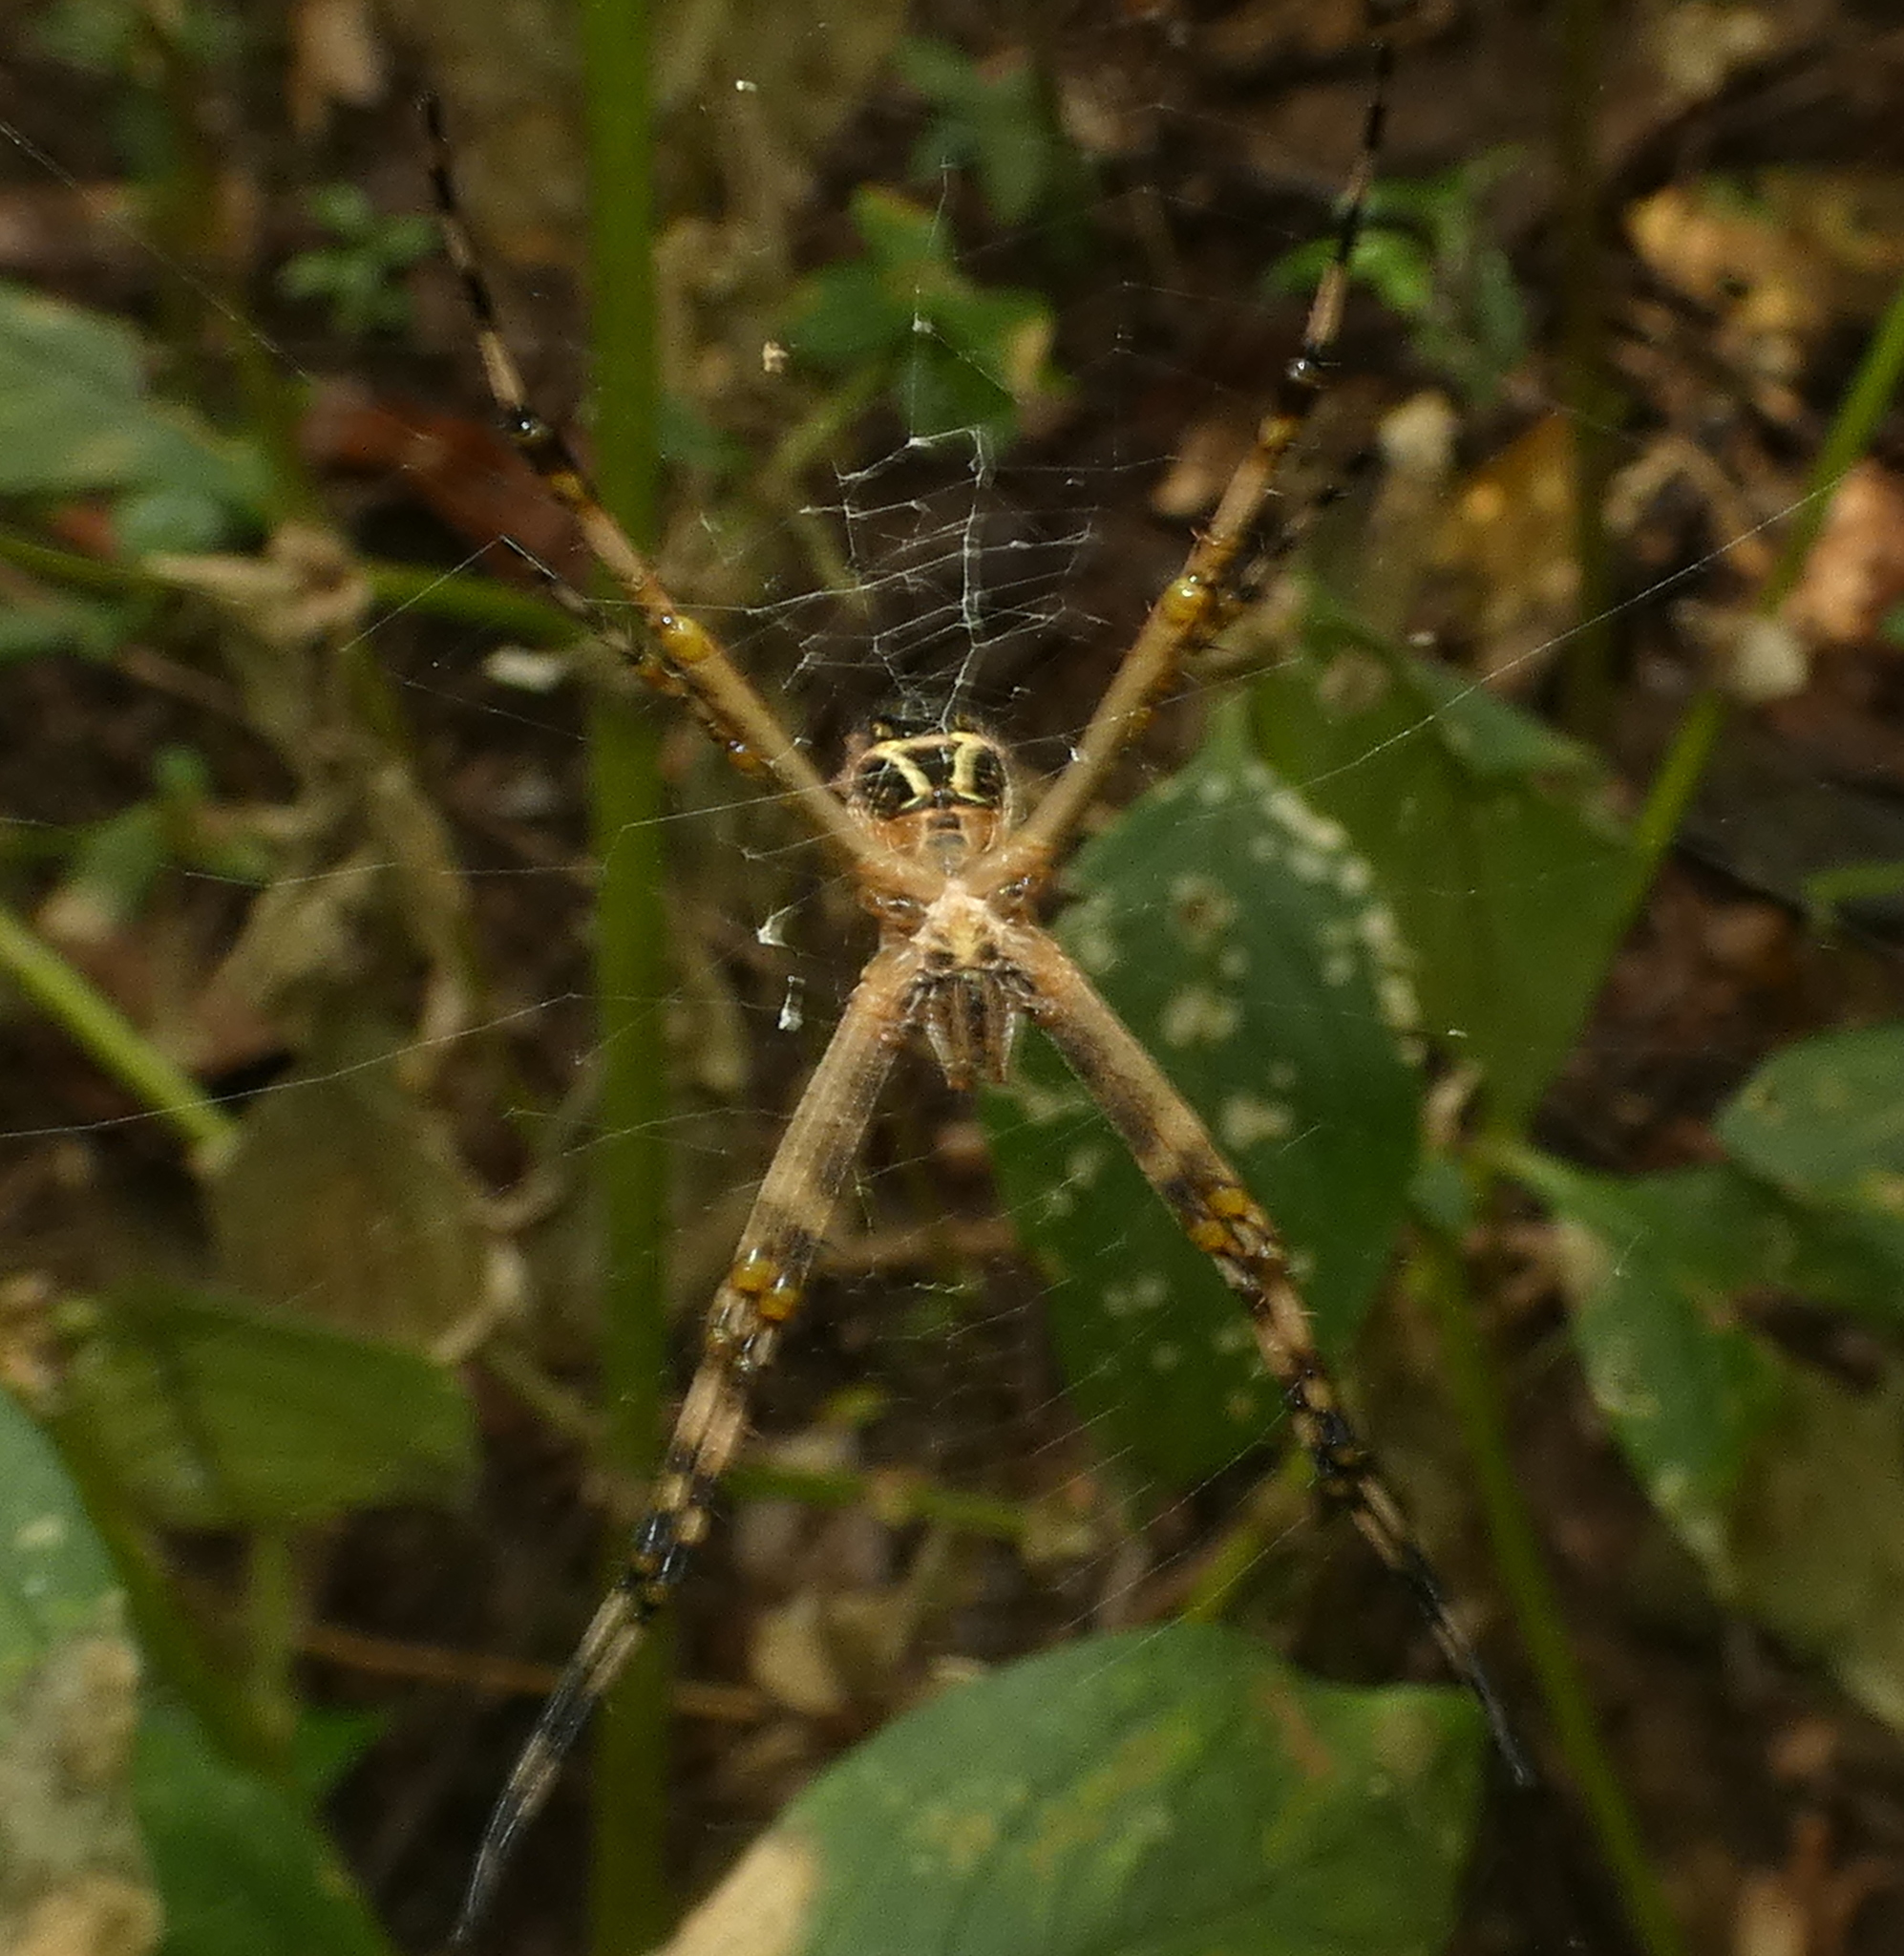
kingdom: Animalia
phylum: Arthropoda
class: Arachnida
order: Araneae
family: Araneidae
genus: Argiope
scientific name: Argiope argentata
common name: Orb weavers
